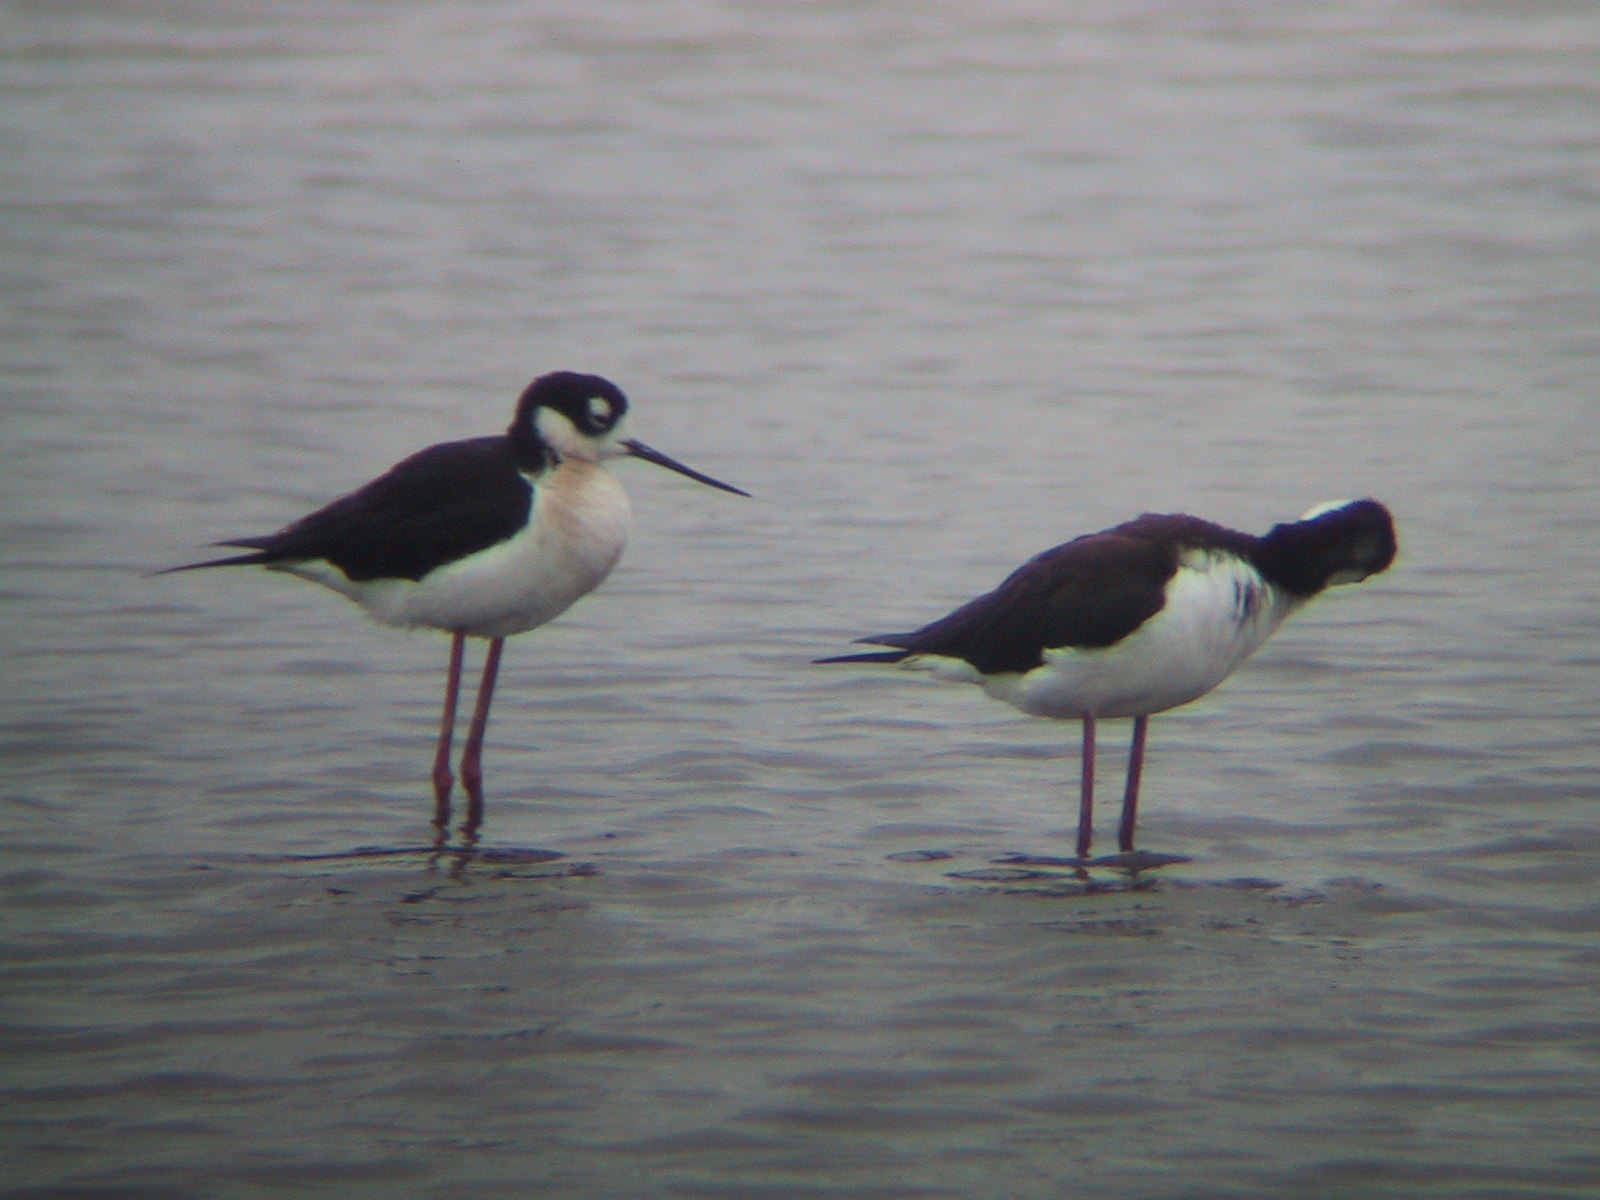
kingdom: Animalia
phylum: Chordata
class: Aves
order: Charadriiformes
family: Recurvirostridae
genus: Himantopus
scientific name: Himantopus mexicanus
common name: Black-necked stilt
